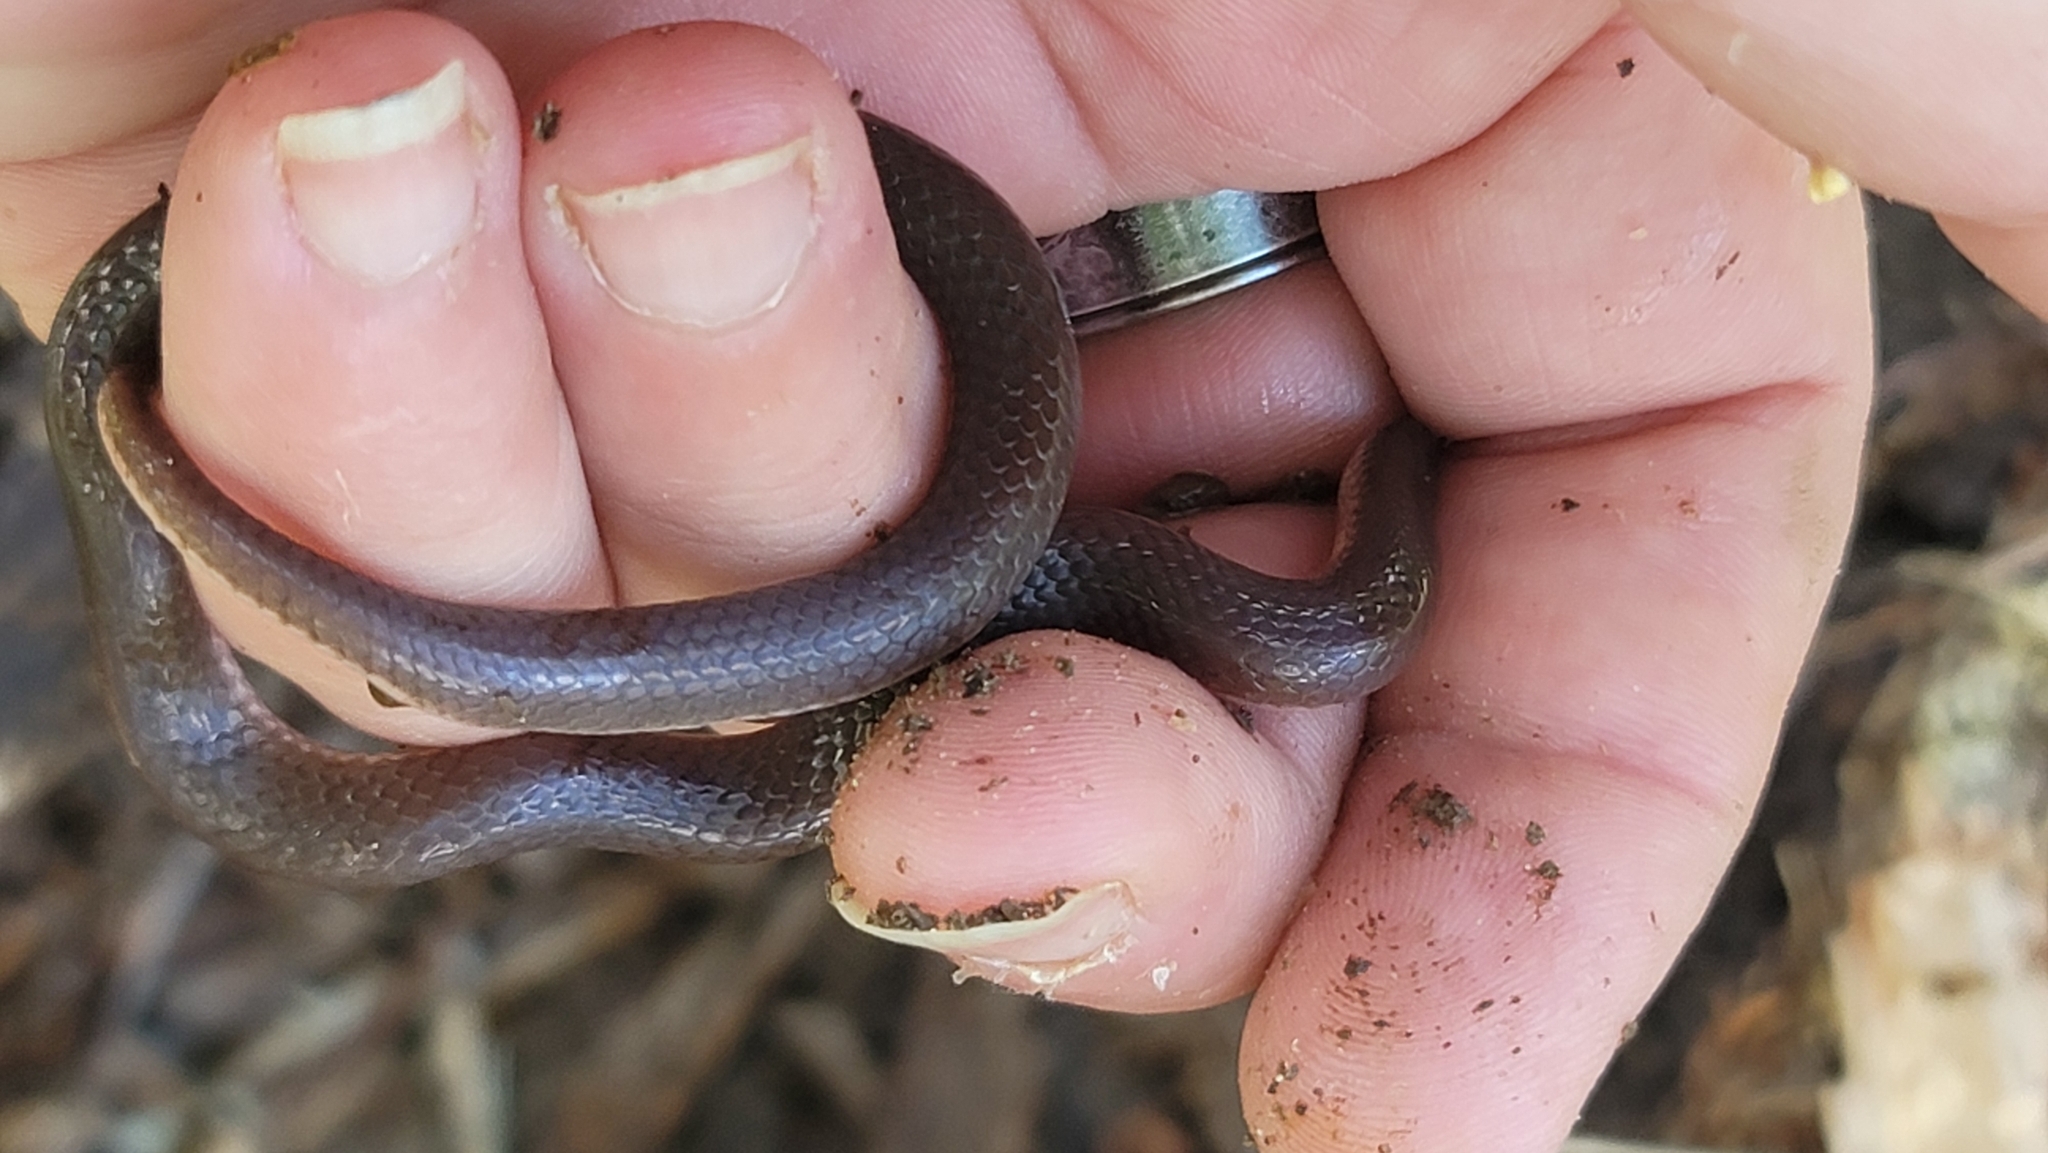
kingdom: Animalia
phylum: Chordata
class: Squamata
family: Colubridae
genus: Carphophis
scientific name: Carphophis amoenus
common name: Eastern worm snake
